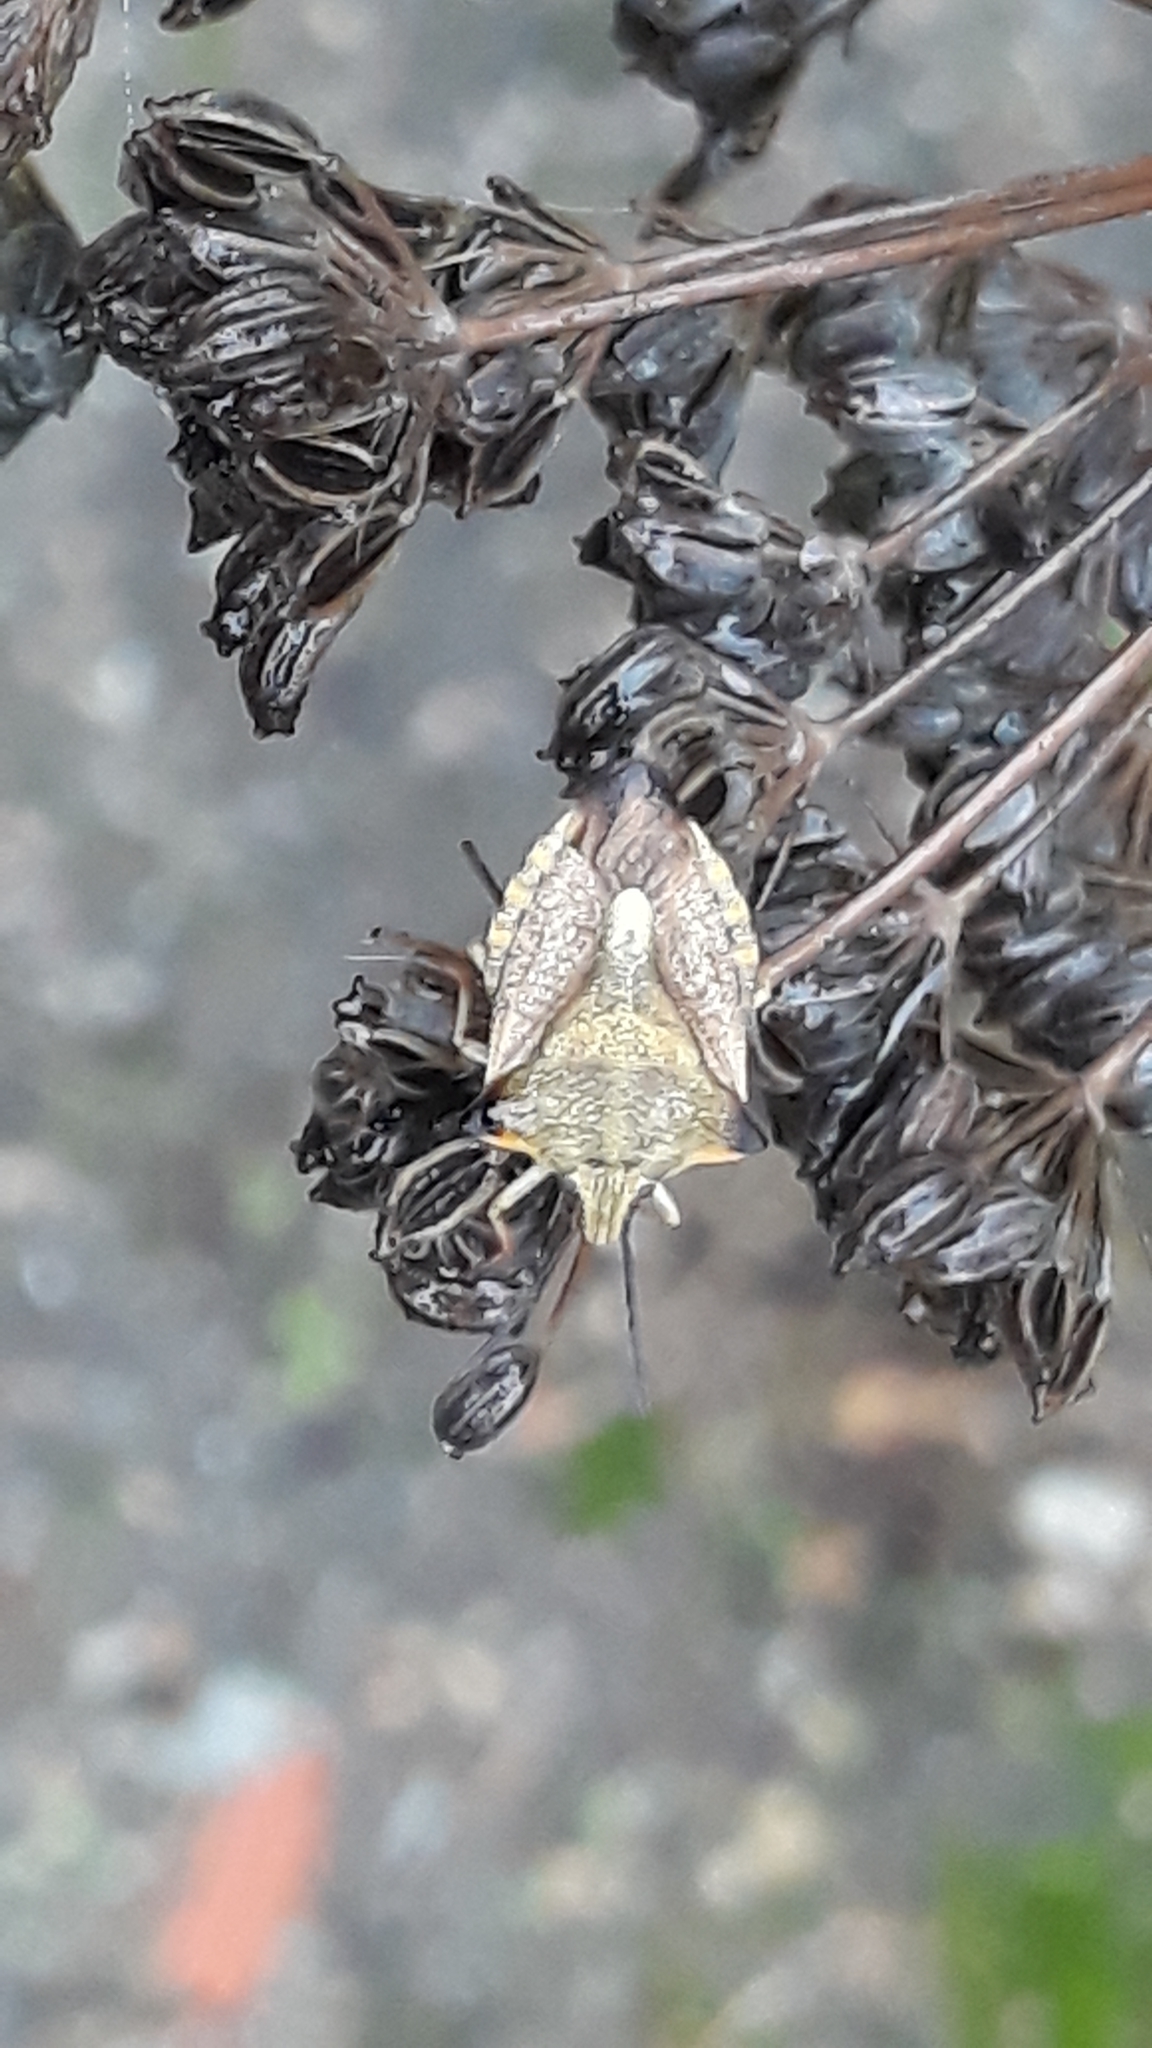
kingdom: Animalia
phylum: Arthropoda
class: Insecta
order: Hemiptera
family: Pentatomidae
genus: Carpocoris
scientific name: Carpocoris mediterraneus
